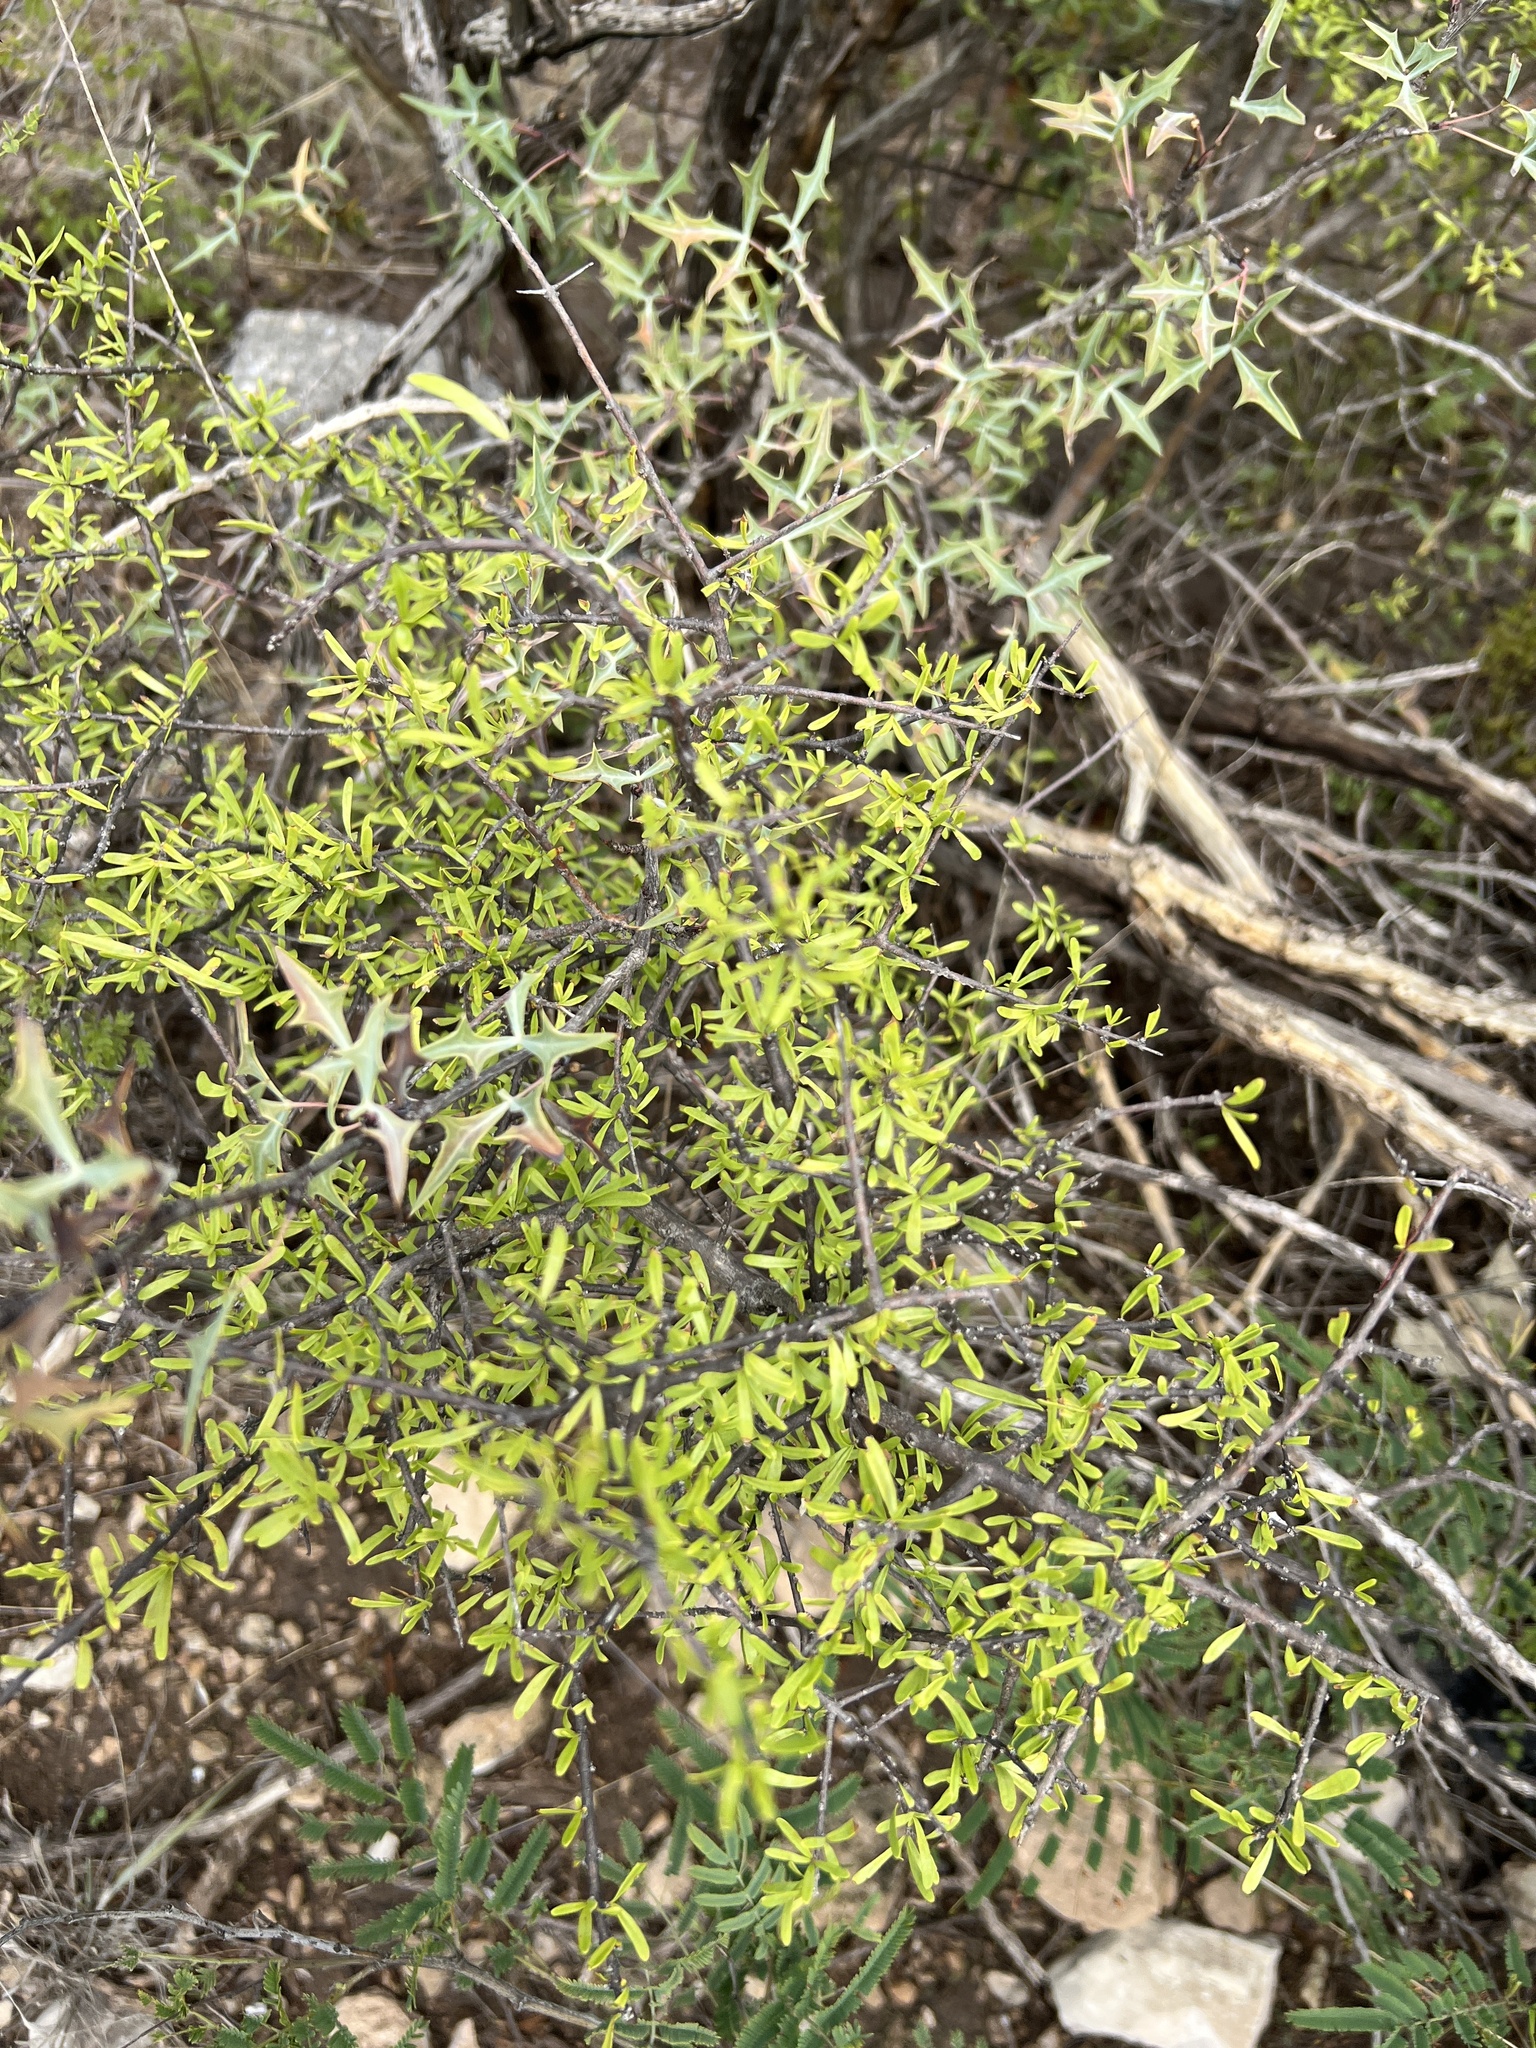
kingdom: Plantae
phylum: Tracheophyta
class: Magnoliopsida
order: Lamiales
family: Oleaceae
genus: Forestiera
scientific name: Forestiera angustifolia
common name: Elbowbush
